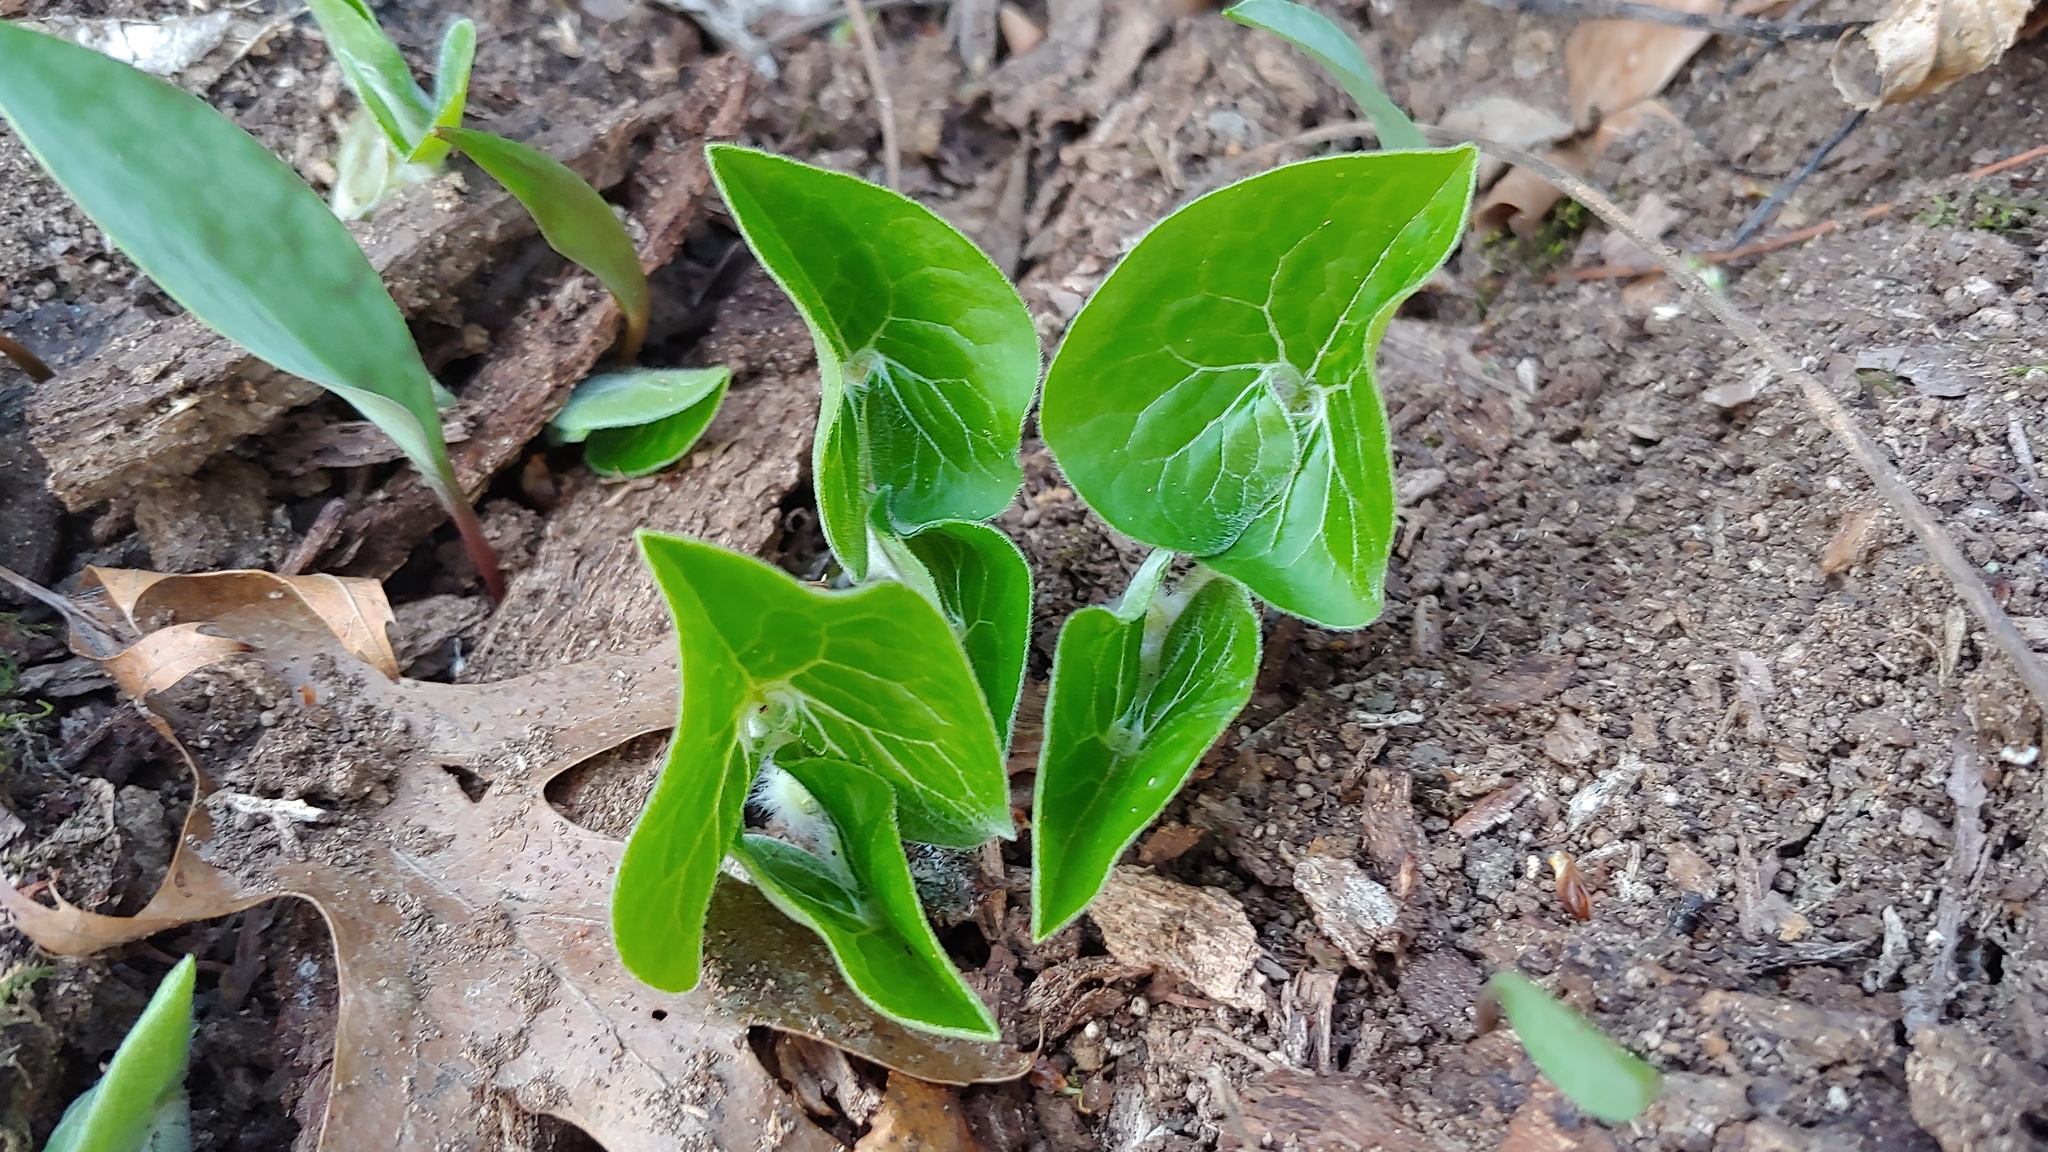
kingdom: Plantae
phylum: Tracheophyta
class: Magnoliopsida
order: Piperales
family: Aristolochiaceae
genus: Asarum
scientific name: Asarum canadense
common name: Wild ginger
